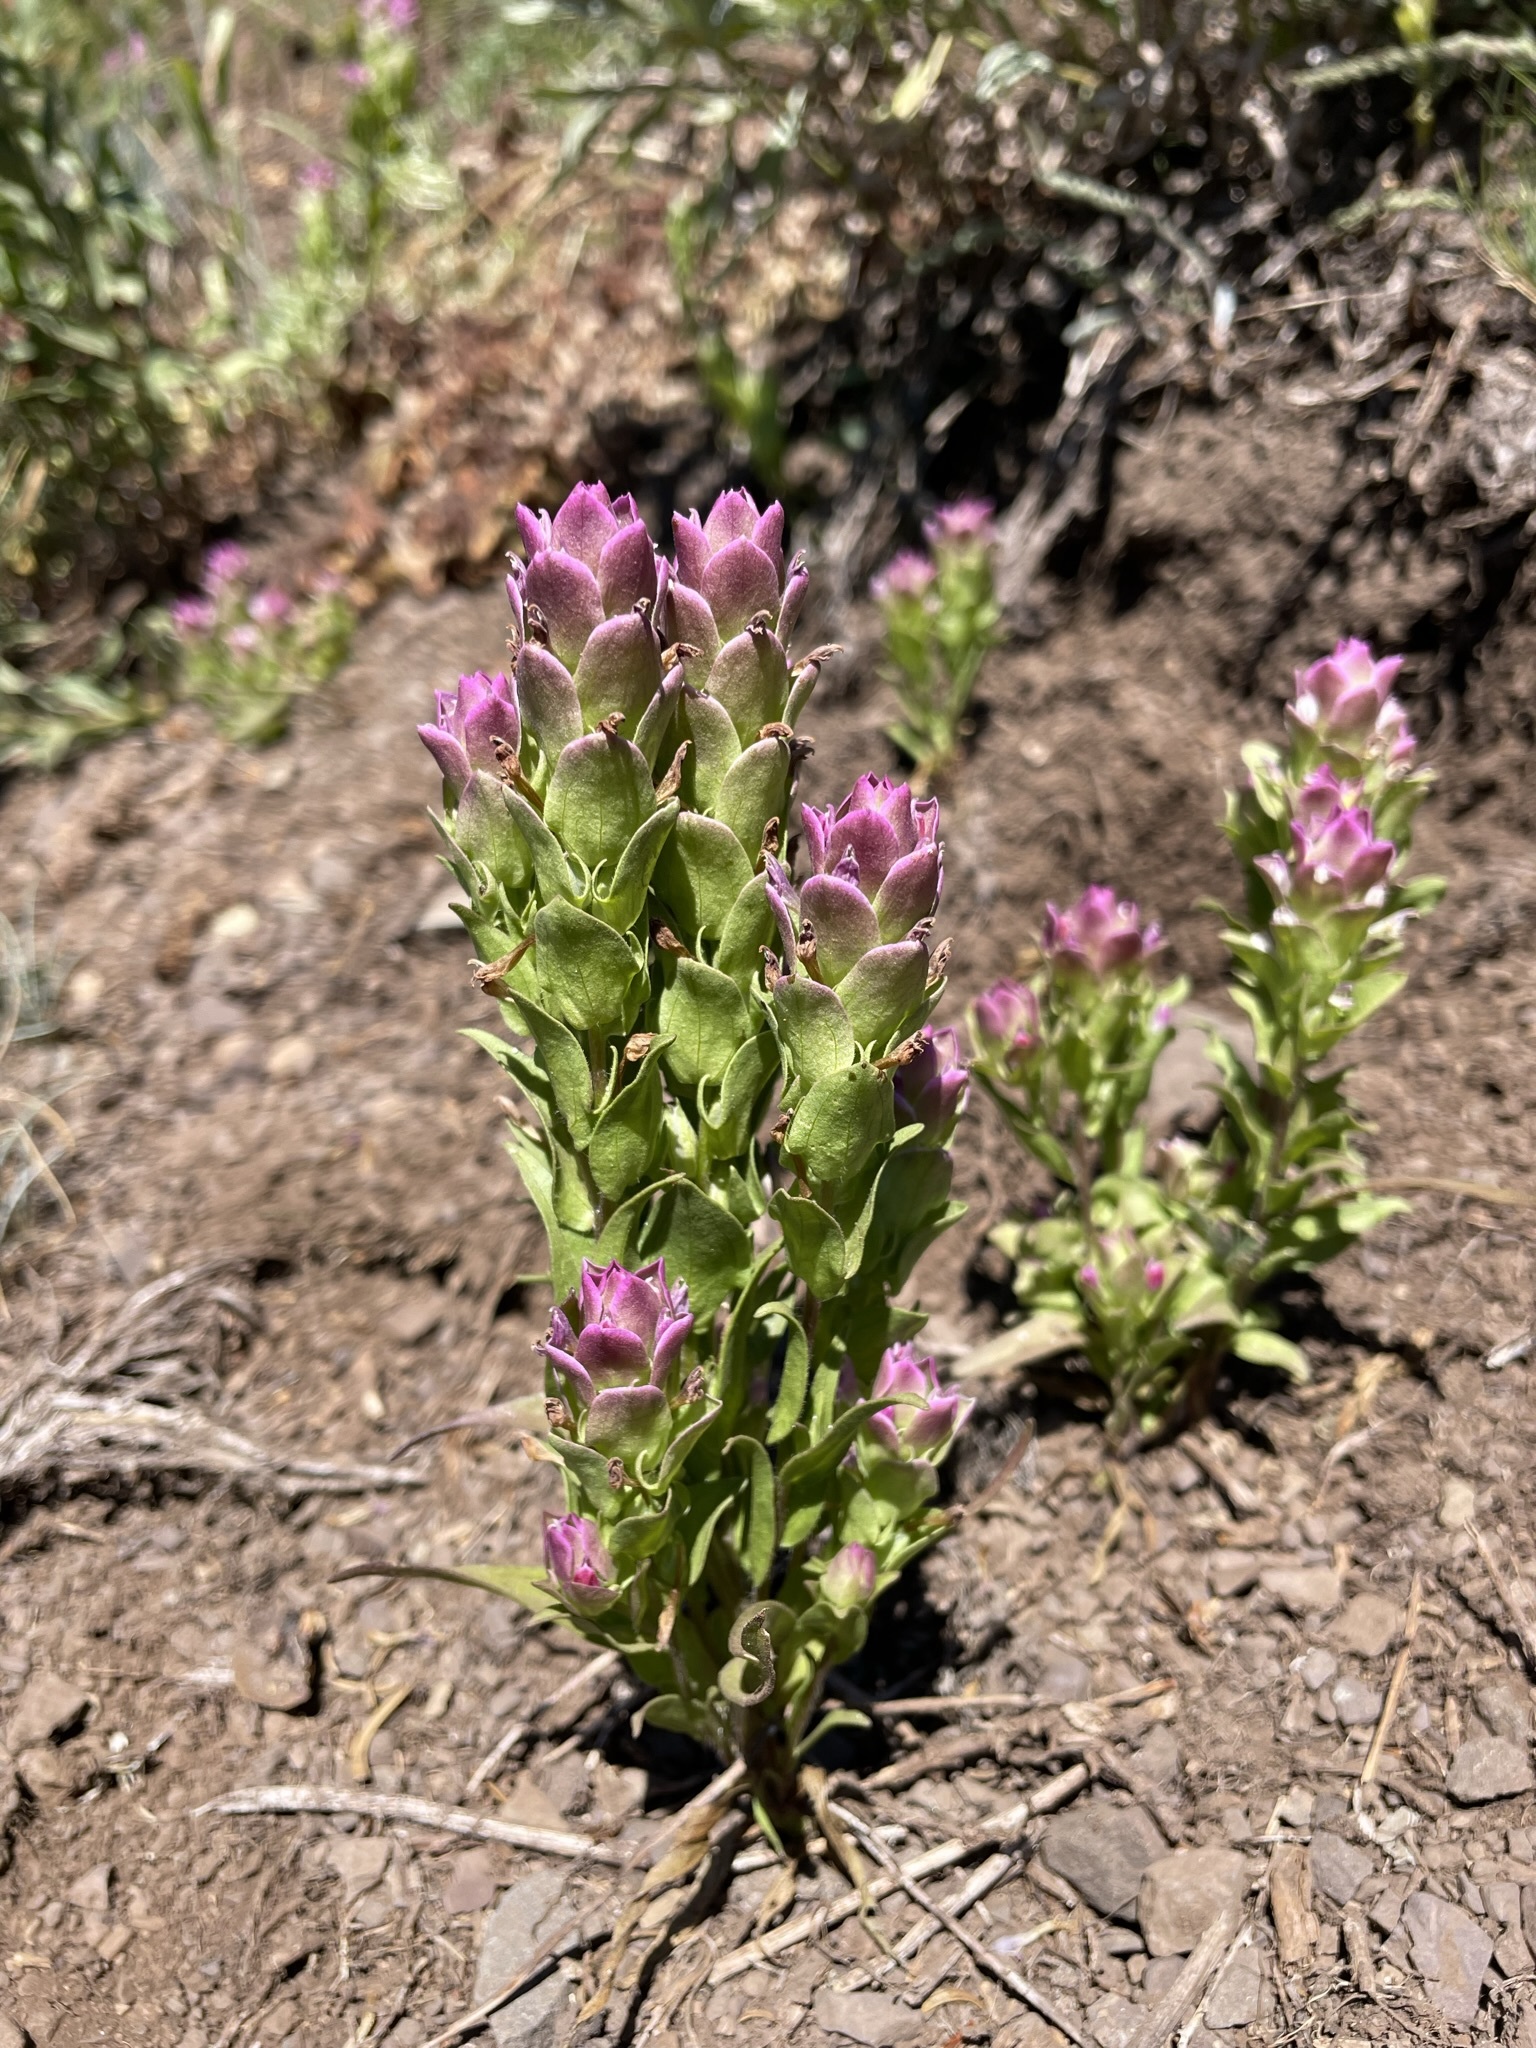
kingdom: Plantae
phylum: Tracheophyta
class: Magnoliopsida
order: Lamiales
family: Orobanchaceae
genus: Orthocarpus
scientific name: Orthocarpus imbricatus
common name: Mountain owl's-clover
